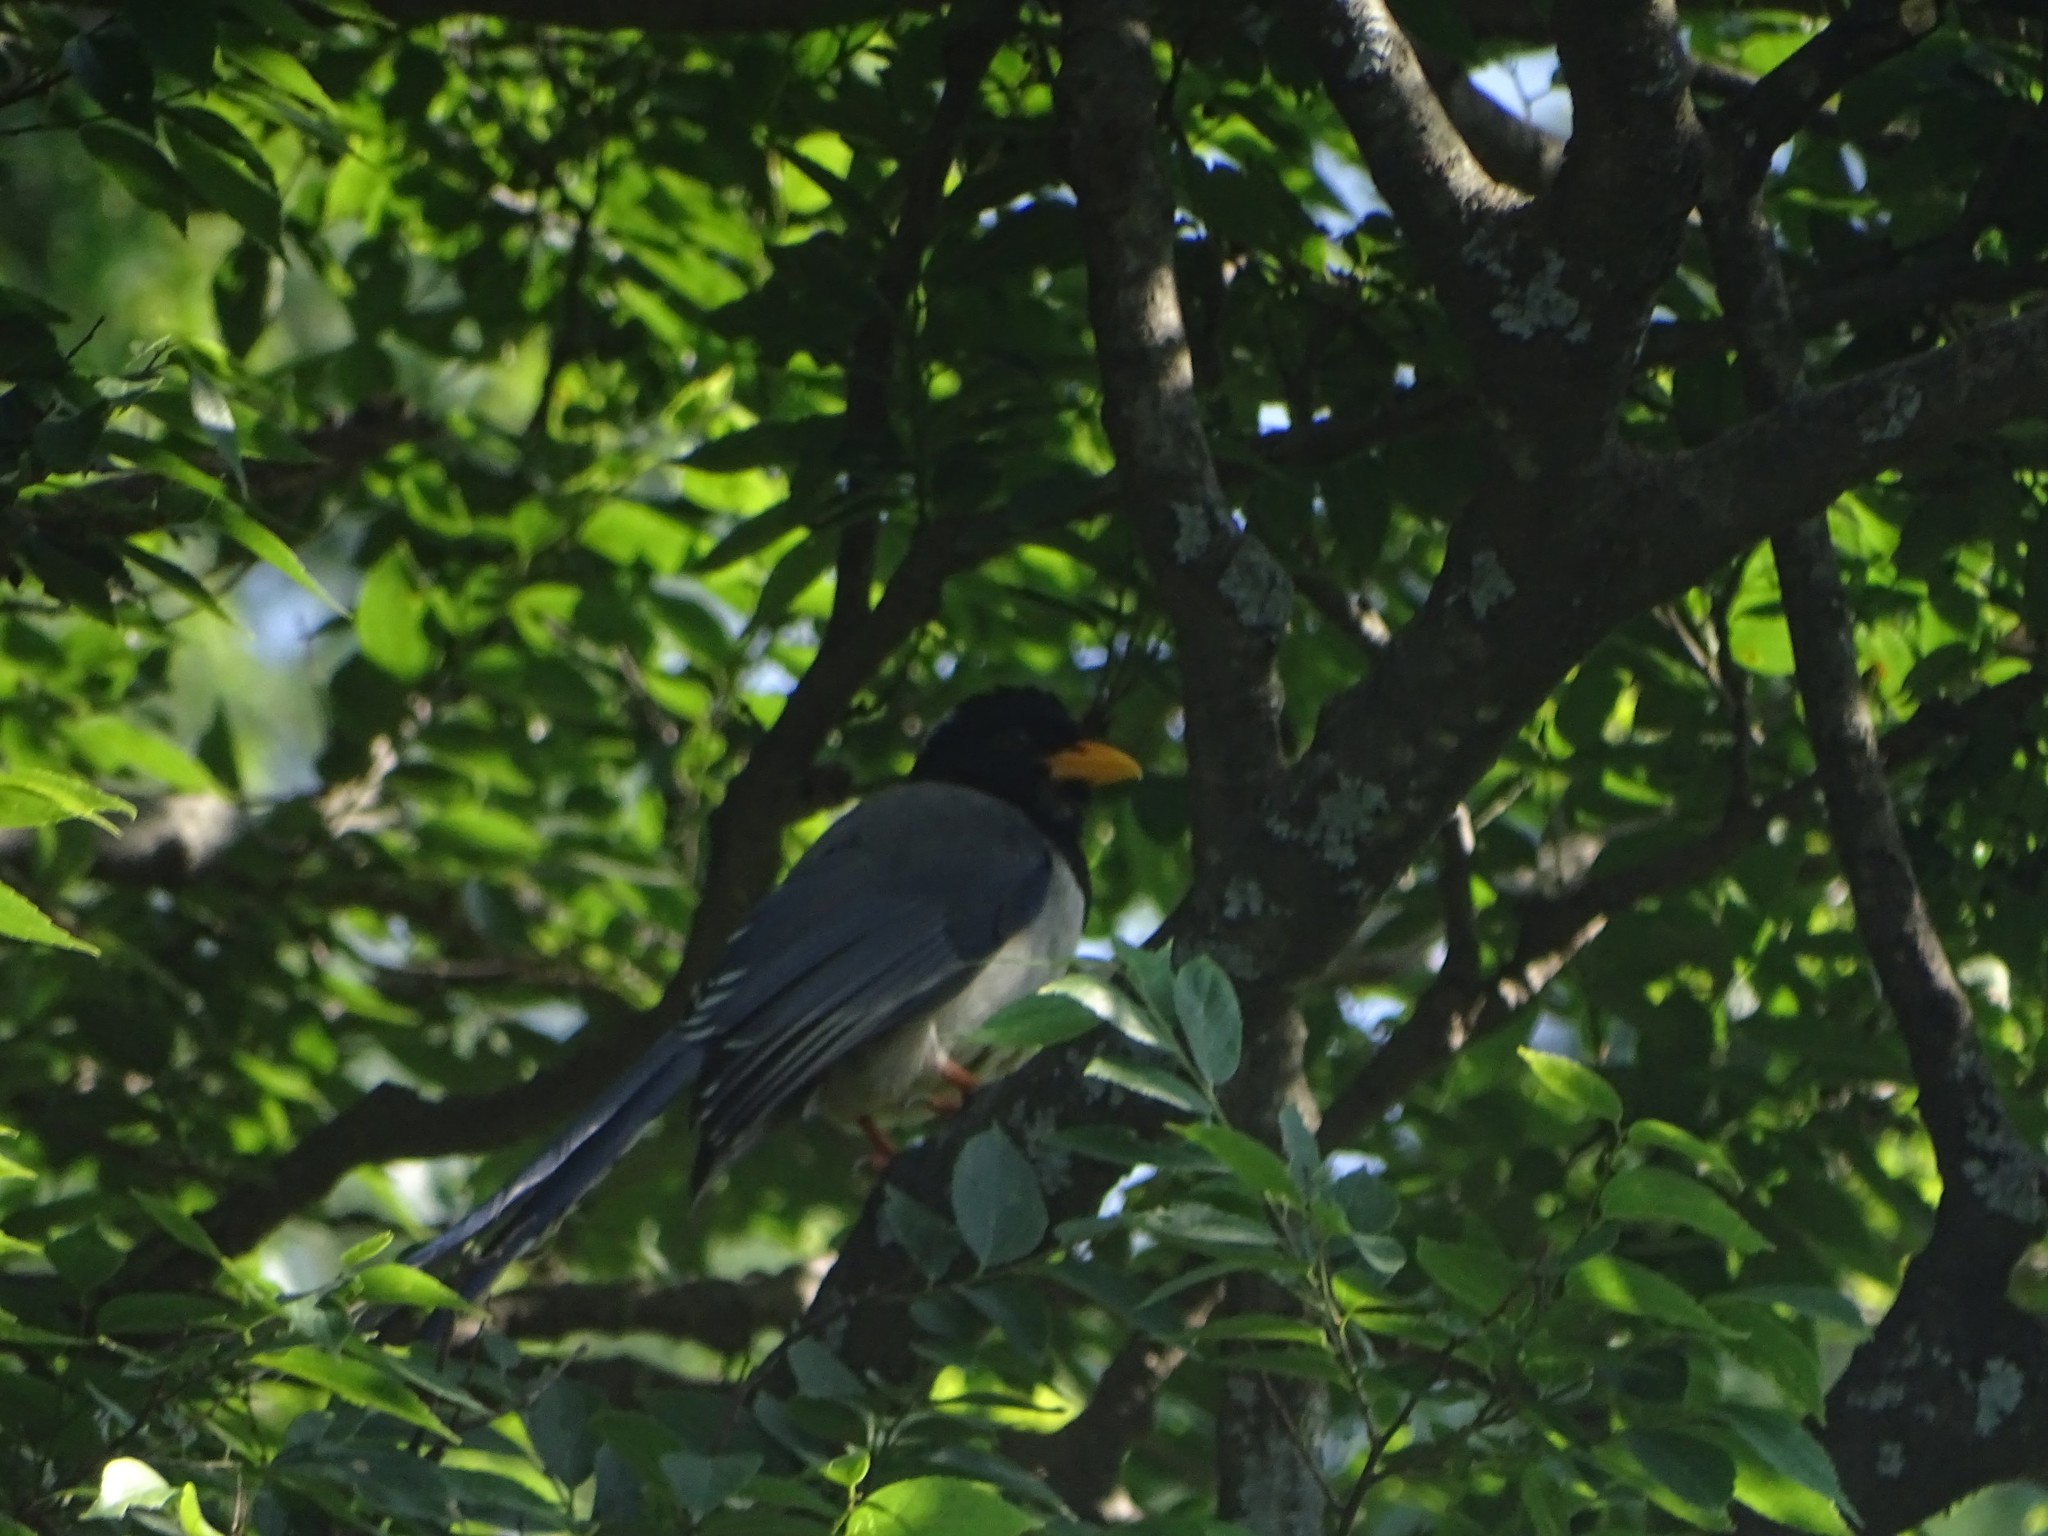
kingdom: Animalia
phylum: Chordata
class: Aves
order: Passeriformes
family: Corvidae
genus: Urocissa
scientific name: Urocissa erythroryncha
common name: Red-billed blue magpie
